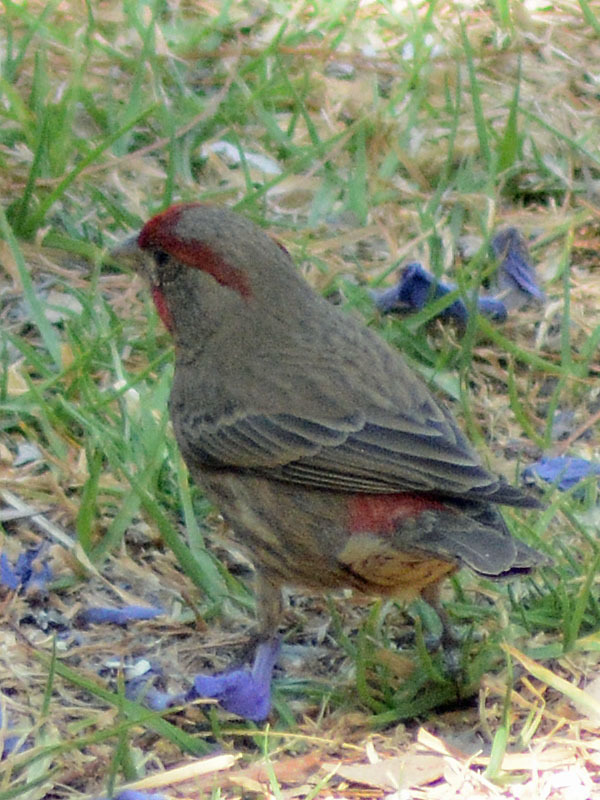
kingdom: Animalia
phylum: Chordata
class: Aves
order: Passeriformes
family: Fringillidae
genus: Haemorhous
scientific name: Haemorhous mexicanus
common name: House finch
